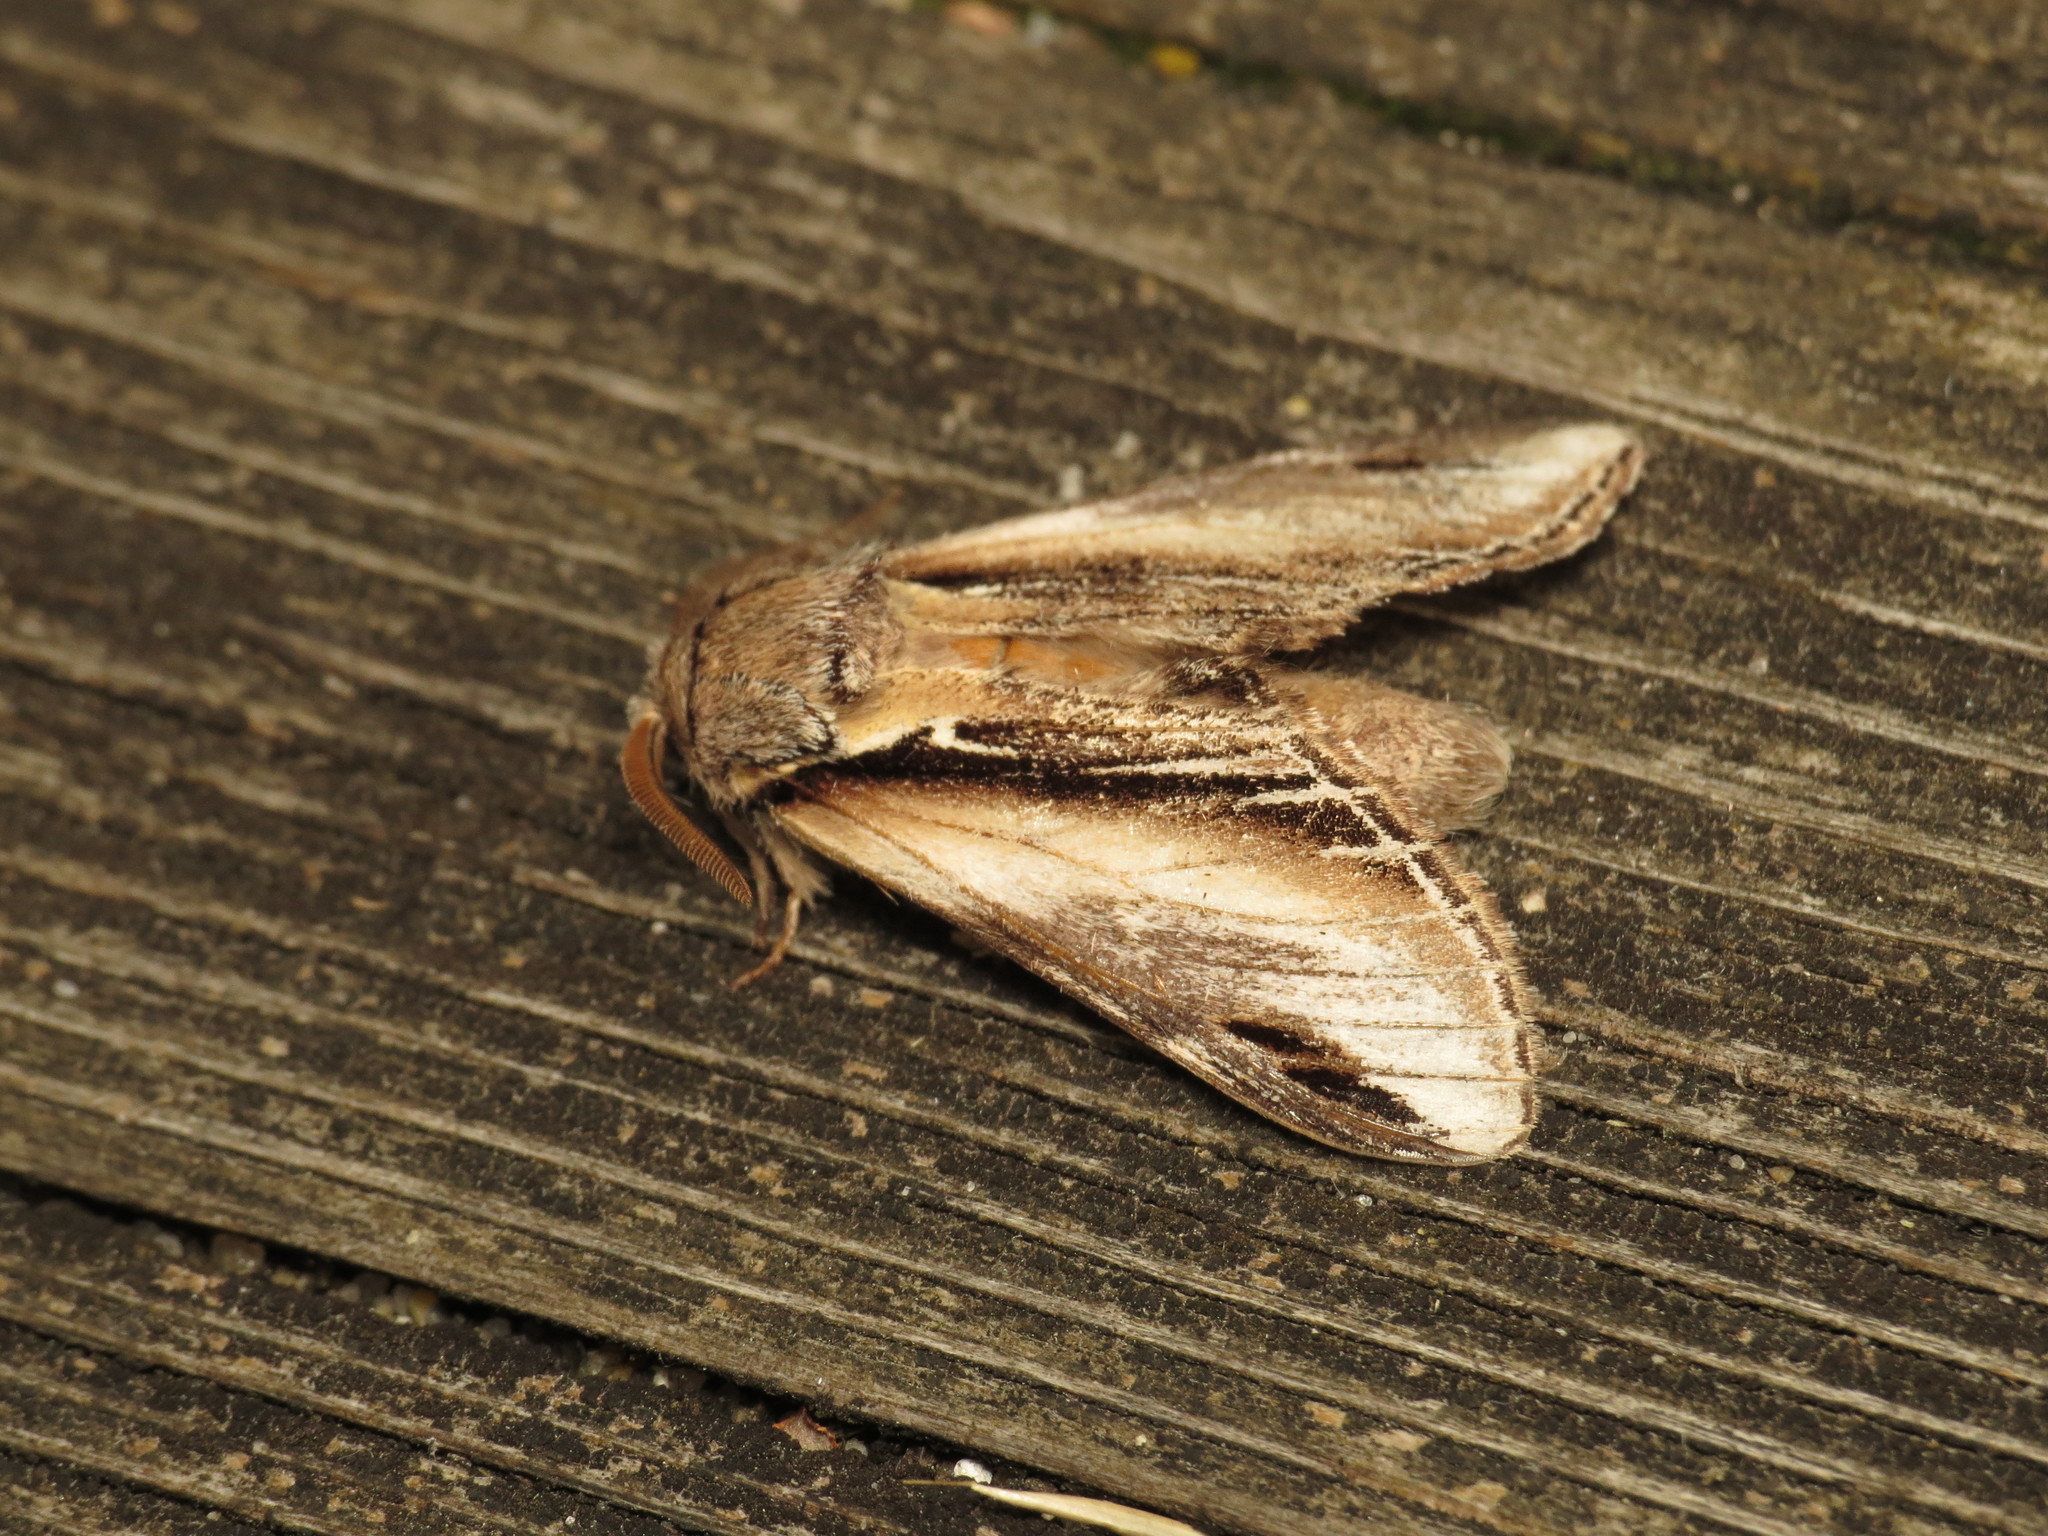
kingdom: Animalia
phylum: Arthropoda
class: Insecta
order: Lepidoptera
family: Notodontidae
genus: Pheosia
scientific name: Pheosia tremula
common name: Swallow prominent
